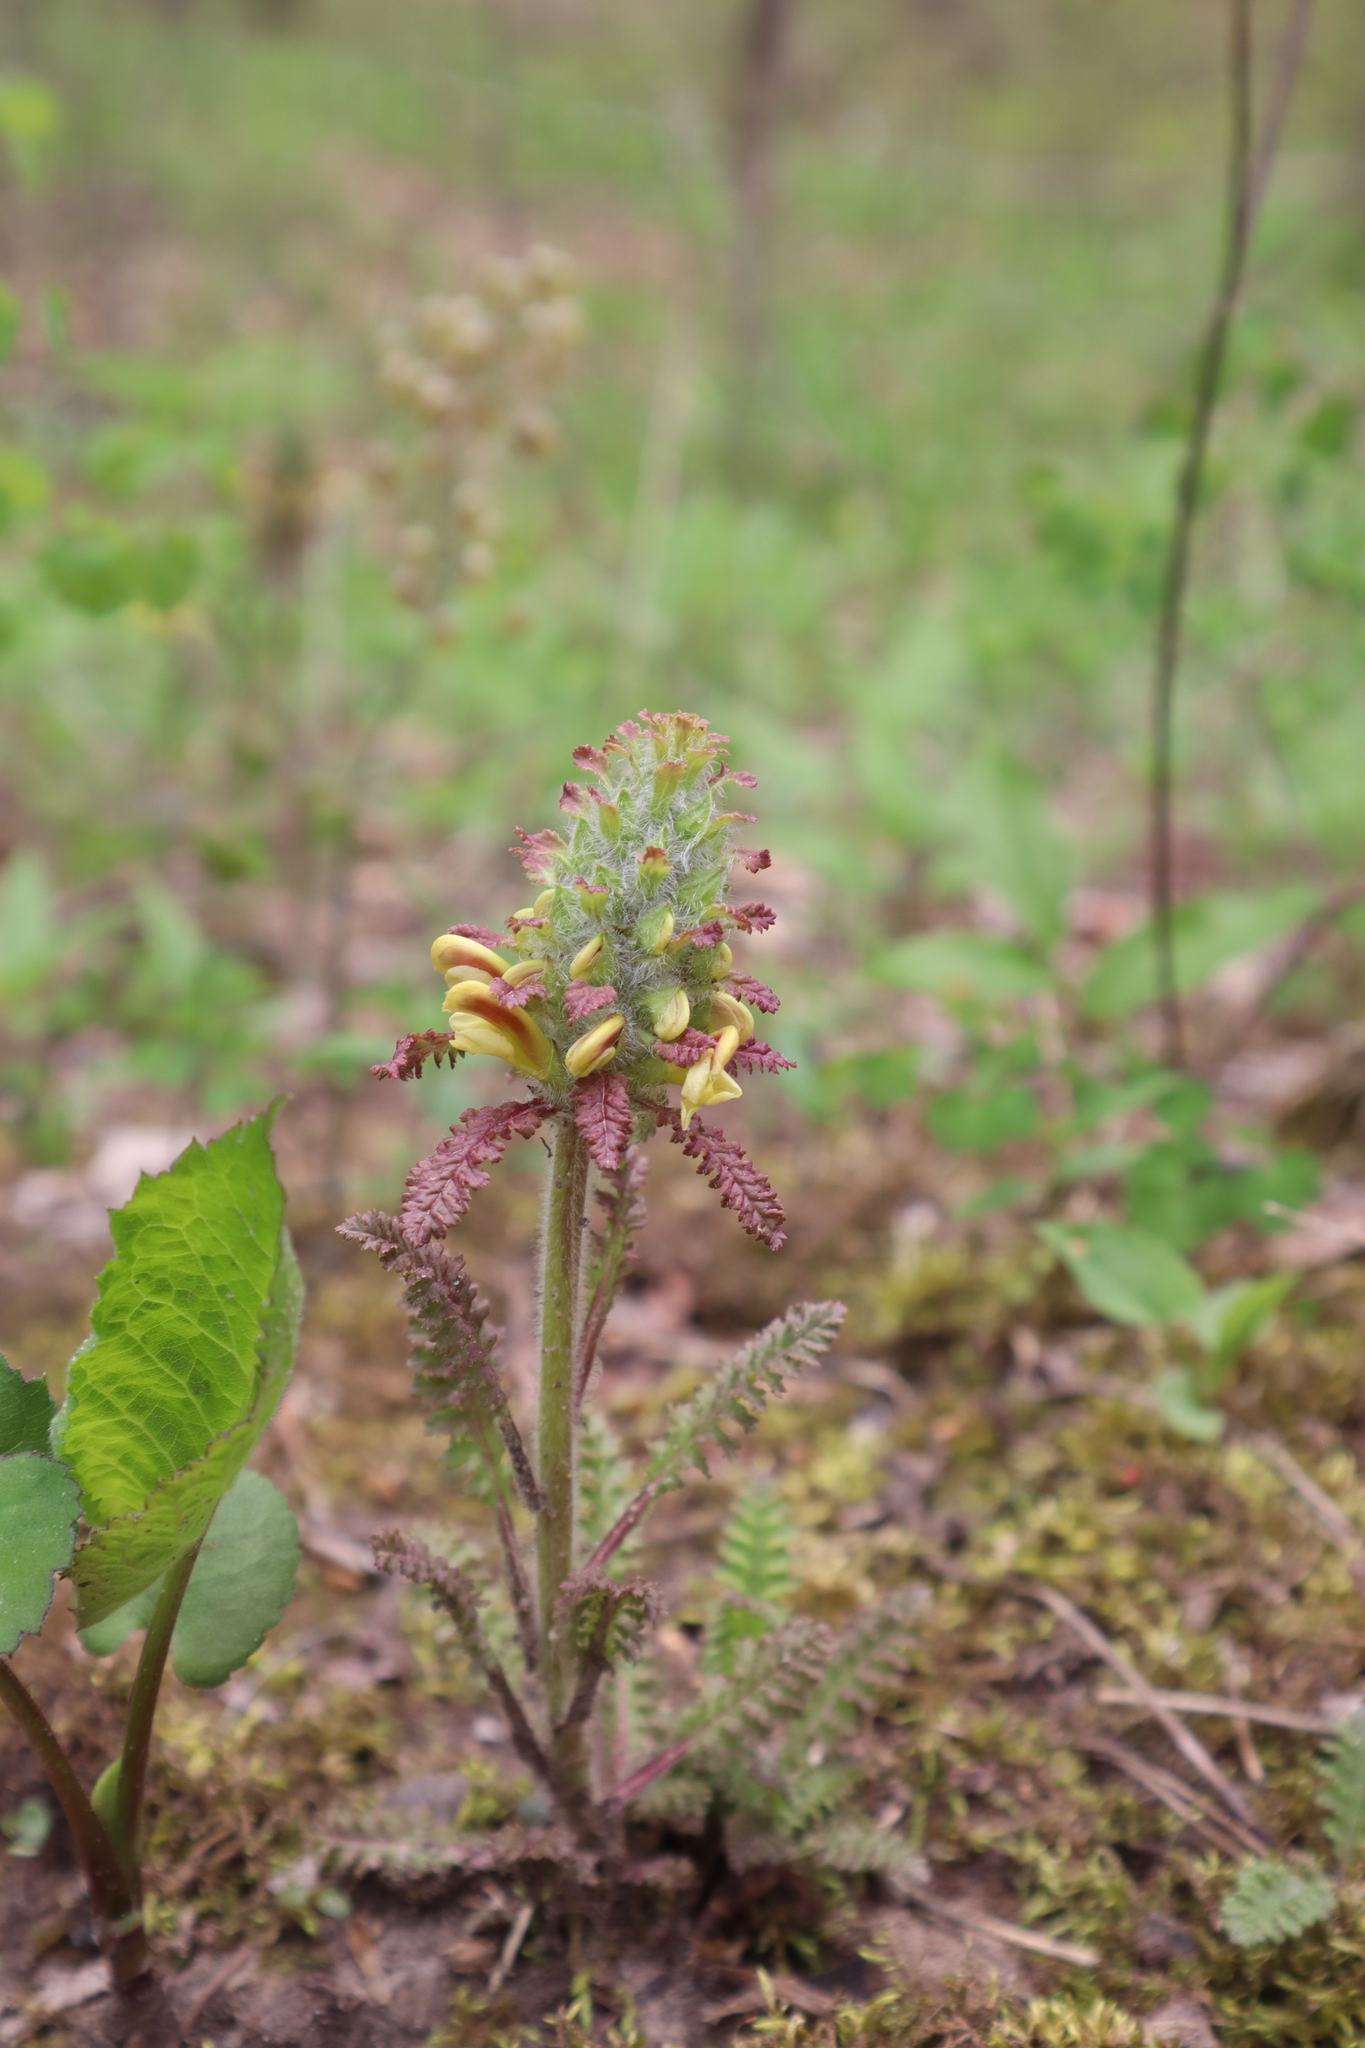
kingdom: Plantae
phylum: Tracheophyta
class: Magnoliopsida
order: Lamiales
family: Orobanchaceae
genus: Pedicularis
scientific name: Pedicularis canadensis
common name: Early lousewort
